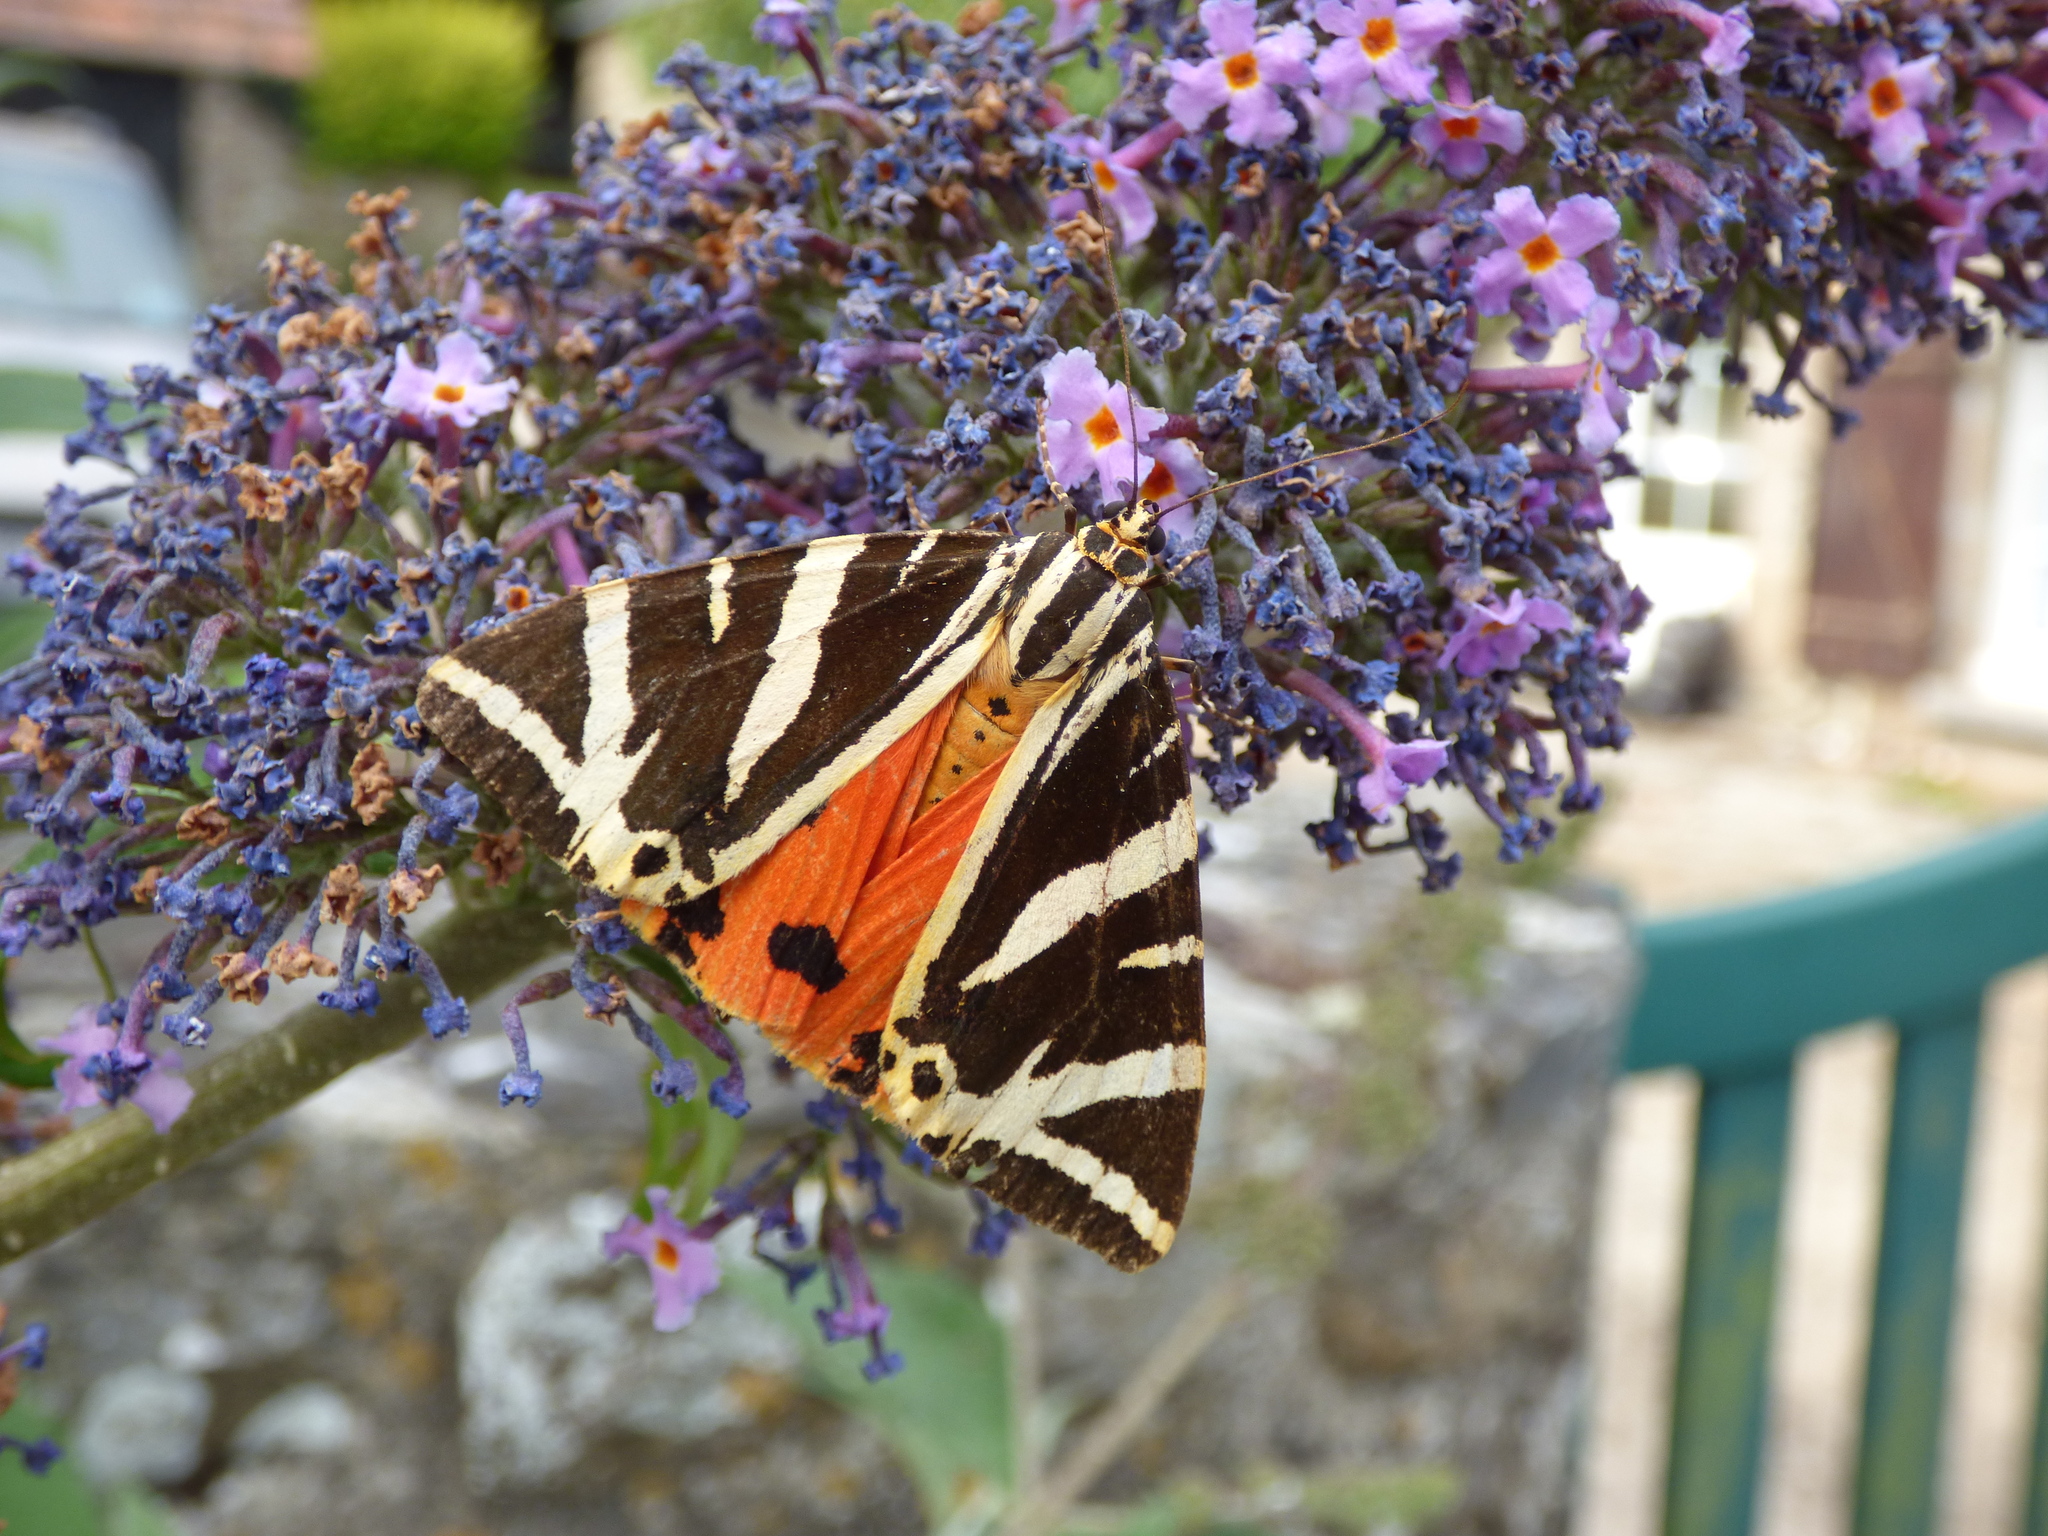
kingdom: Animalia
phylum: Arthropoda
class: Insecta
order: Lepidoptera
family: Erebidae
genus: Euplagia
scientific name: Euplagia quadripunctaria
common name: Jersey tiger
